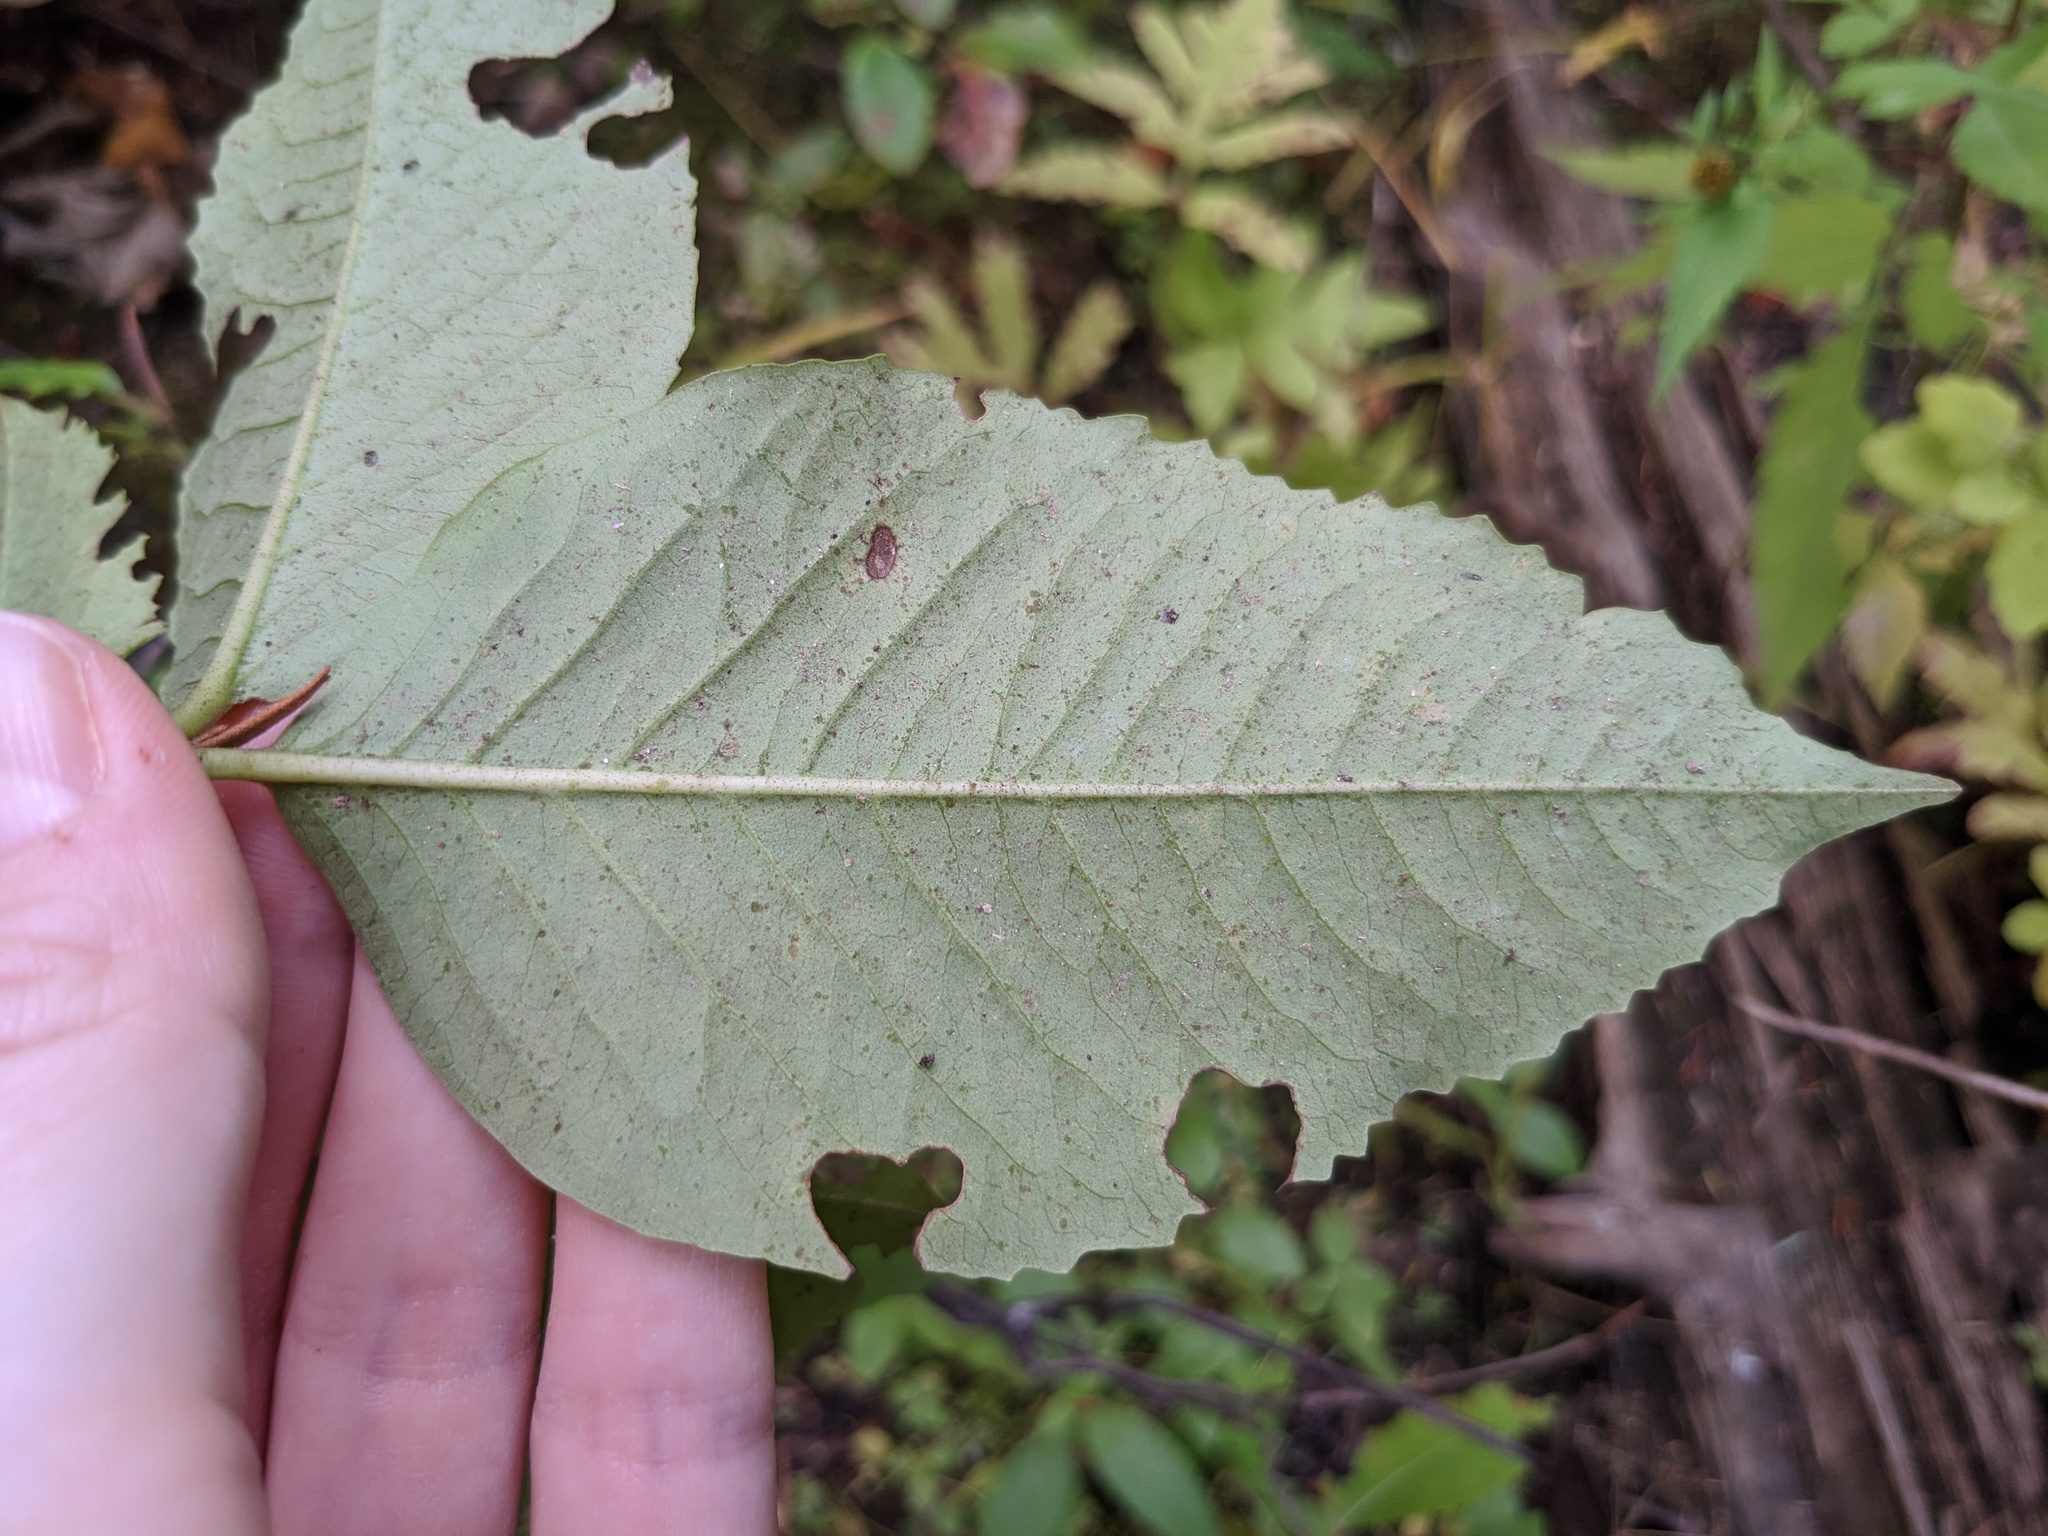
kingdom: Plantae
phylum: Tracheophyta
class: Magnoliopsida
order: Dipsacales
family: Viburnaceae
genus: Viburnum
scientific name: Viburnum cassinoides
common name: Swamp haw
